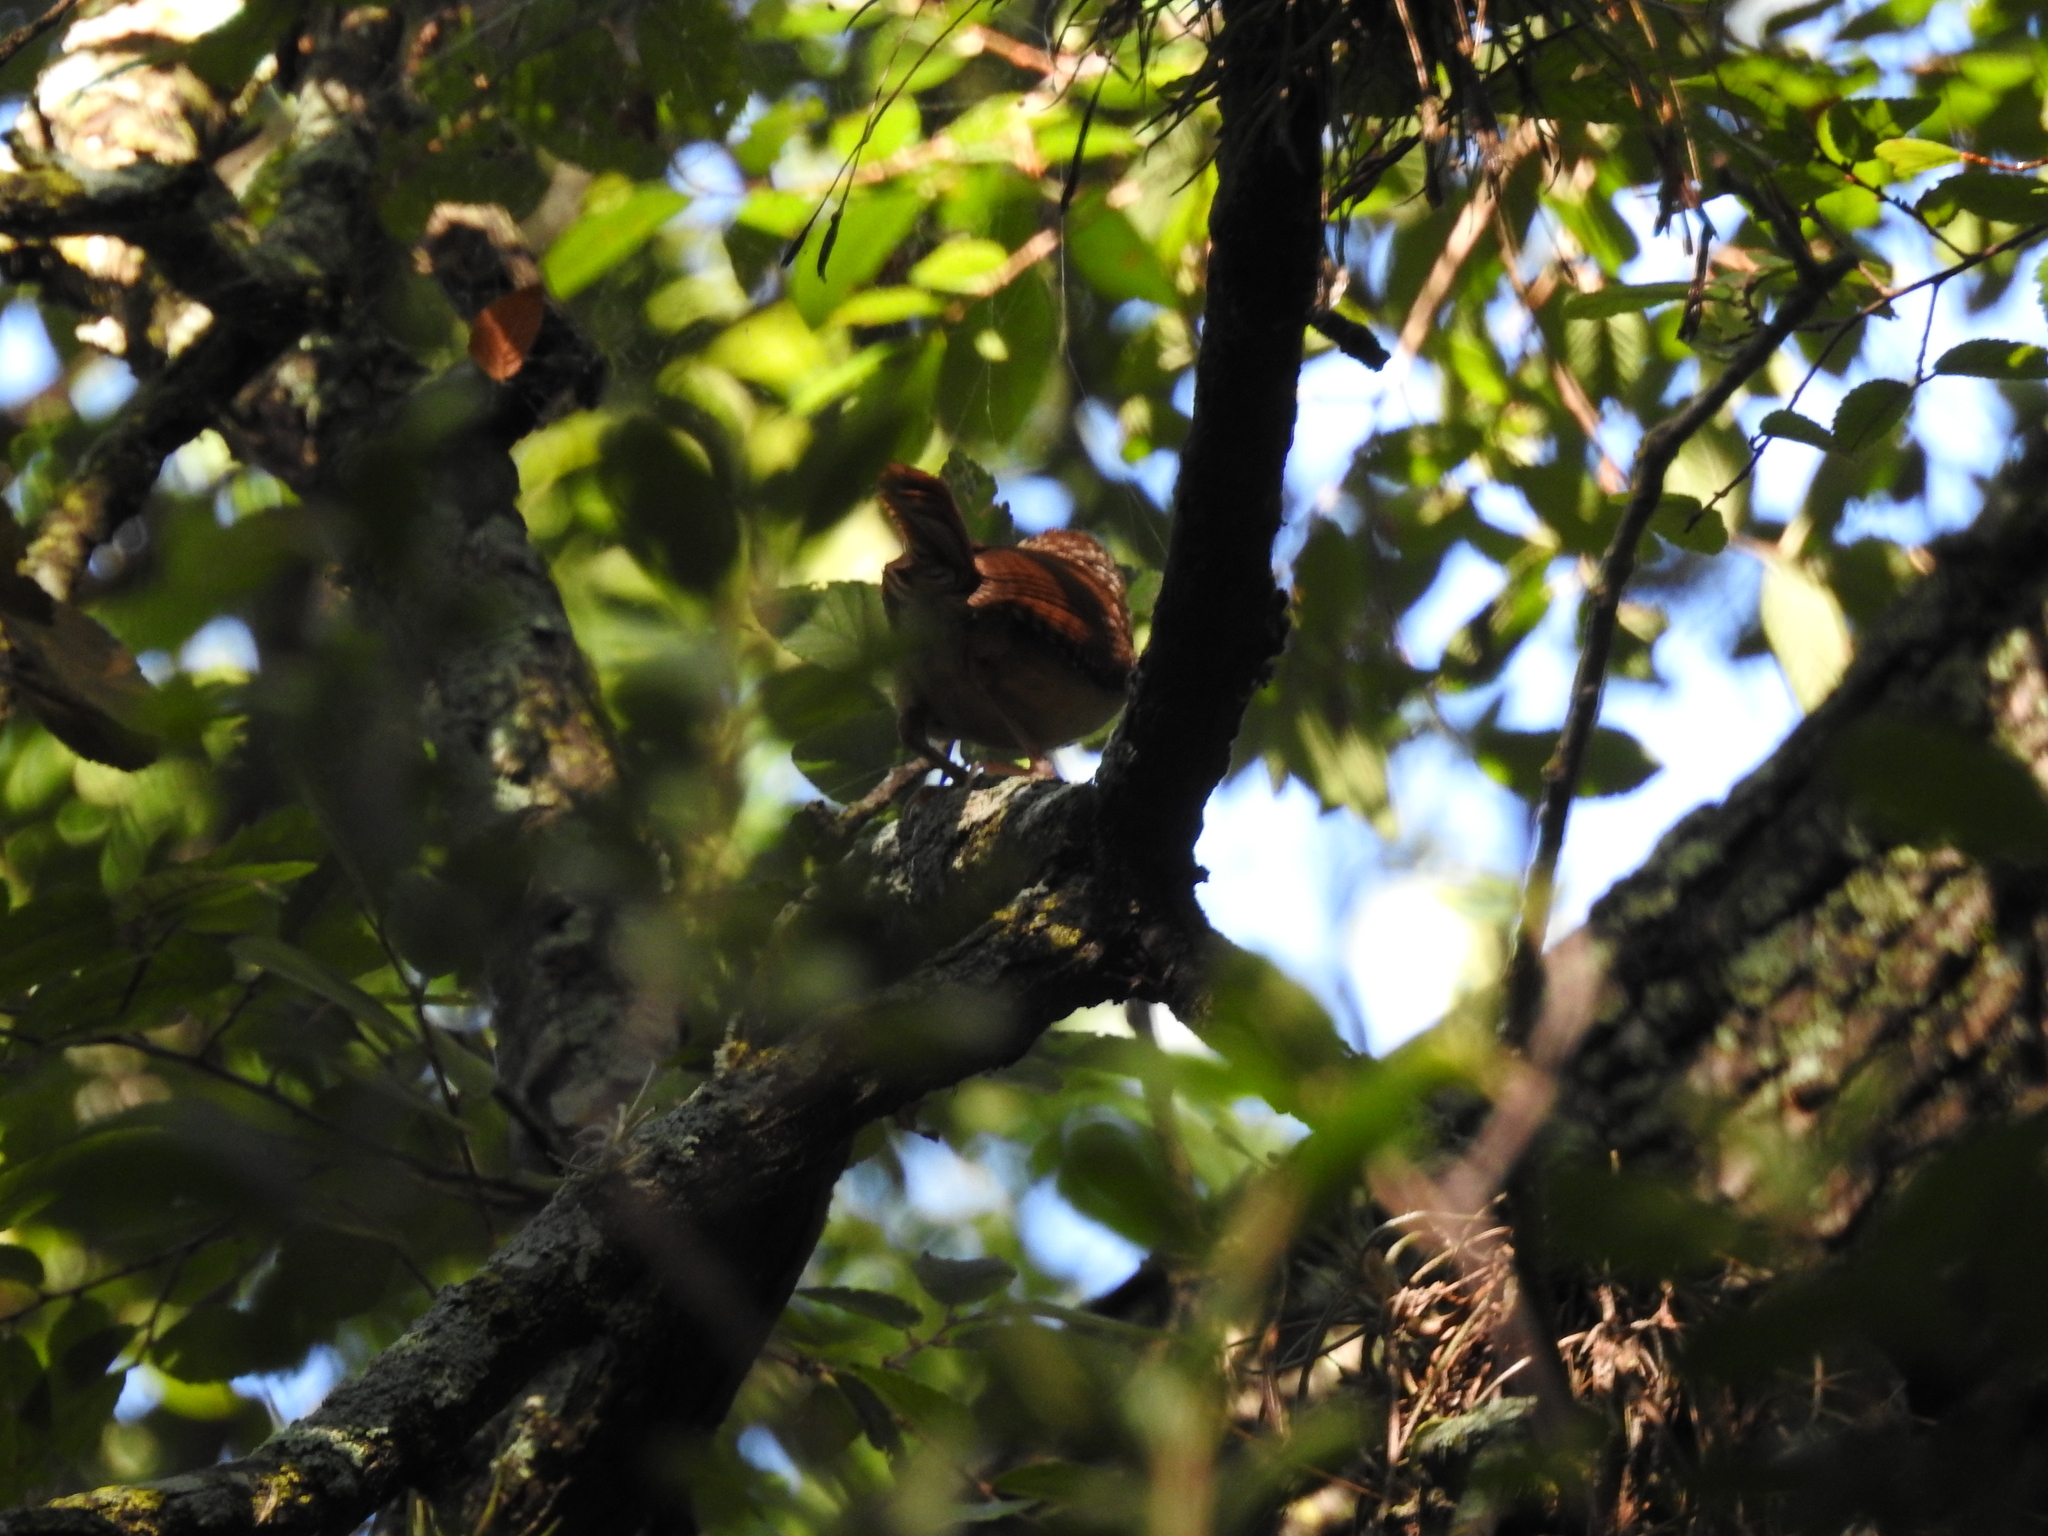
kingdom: Animalia
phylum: Chordata
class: Aves
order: Passeriformes
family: Troglodytidae
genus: Thryothorus
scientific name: Thryothorus ludovicianus
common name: Carolina wren
